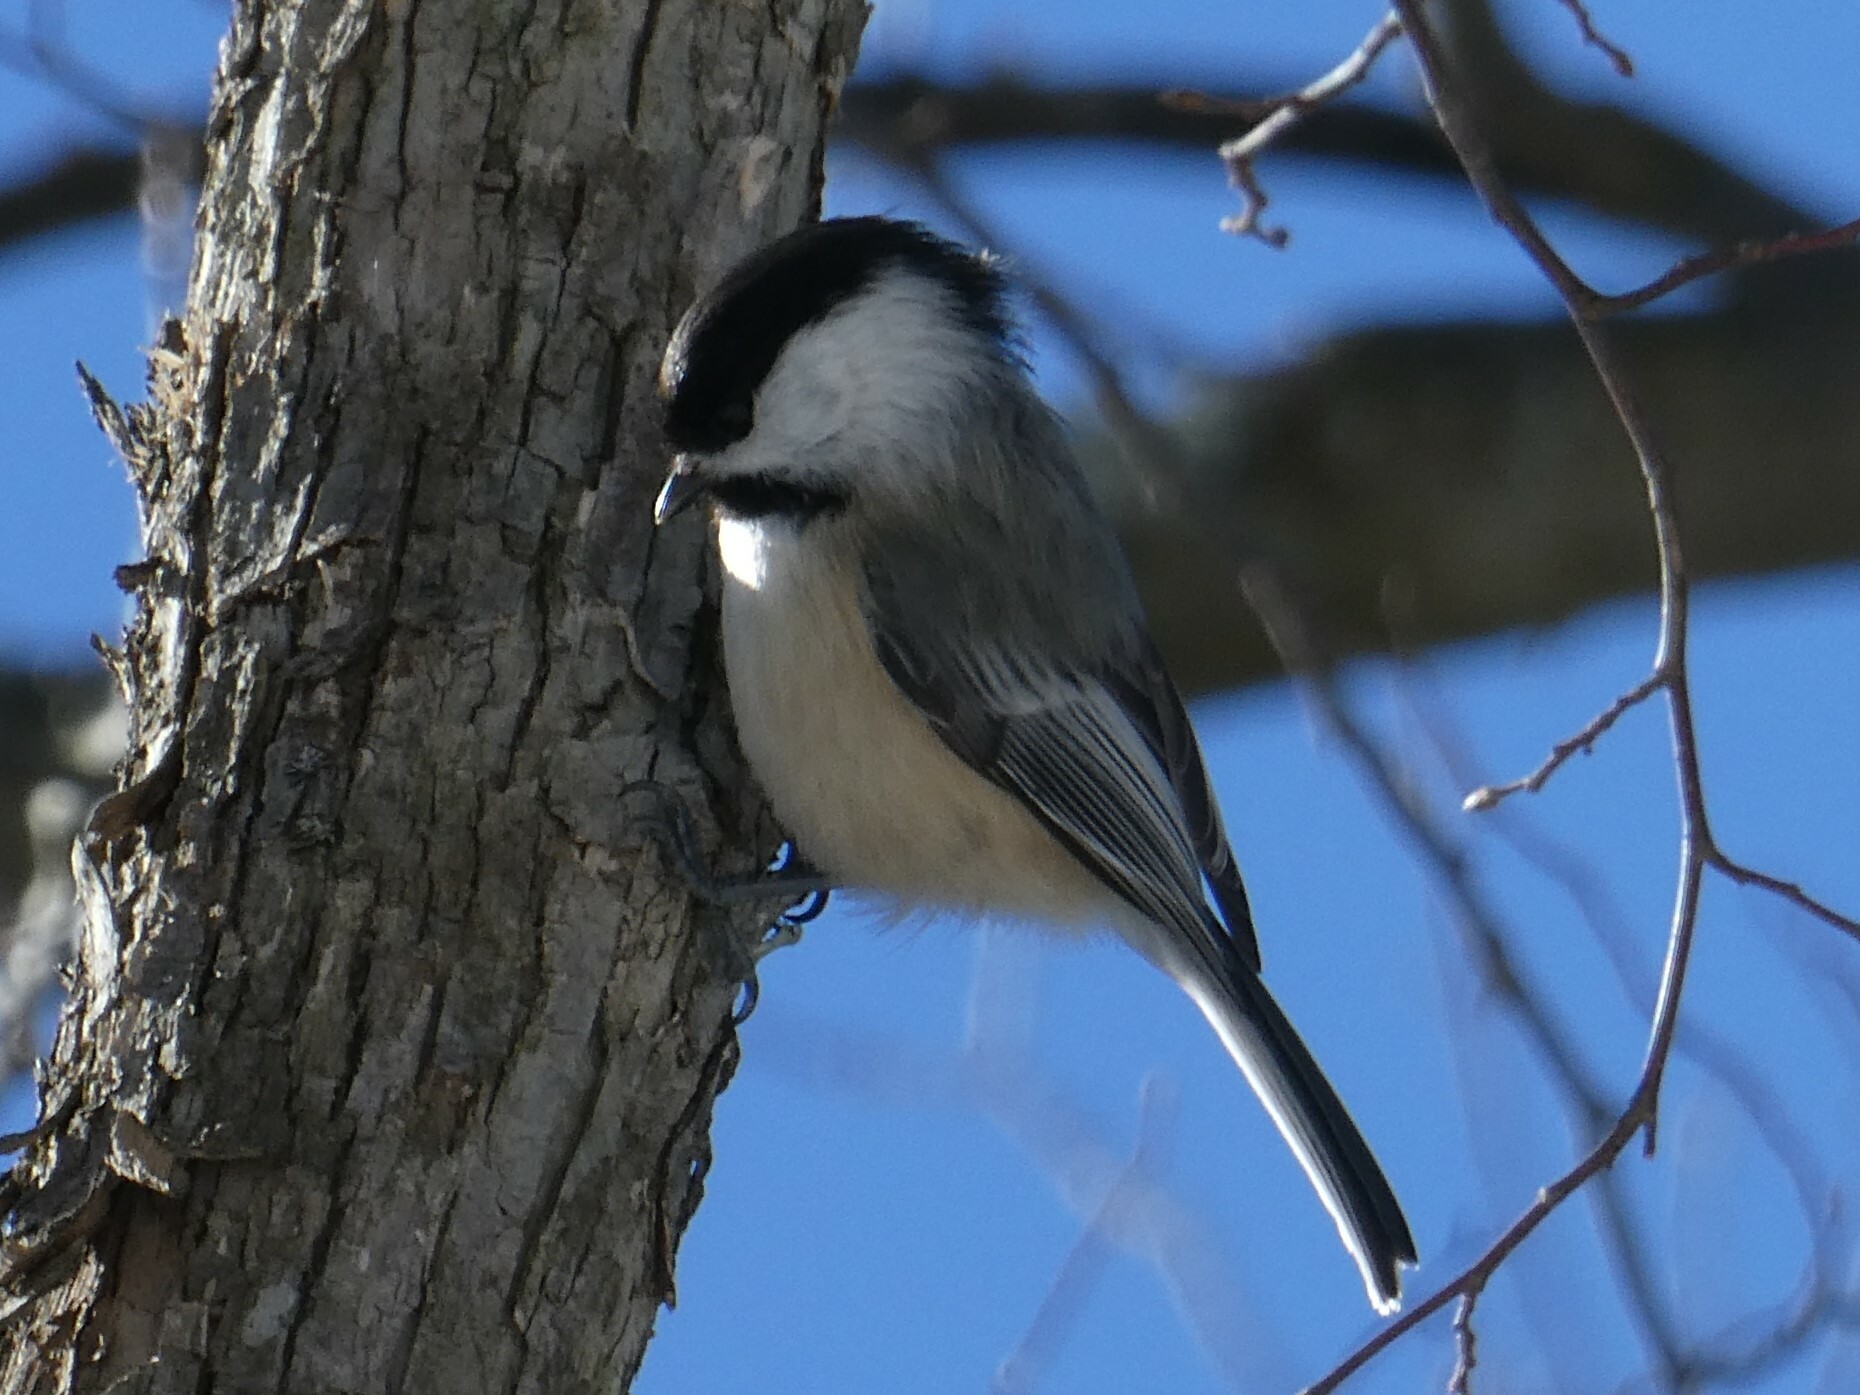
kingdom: Animalia
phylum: Chordata
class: Aves
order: Passeriformes
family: Paridae
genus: Poecile
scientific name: Poecile atricapillus
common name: Black-capped chickadee
